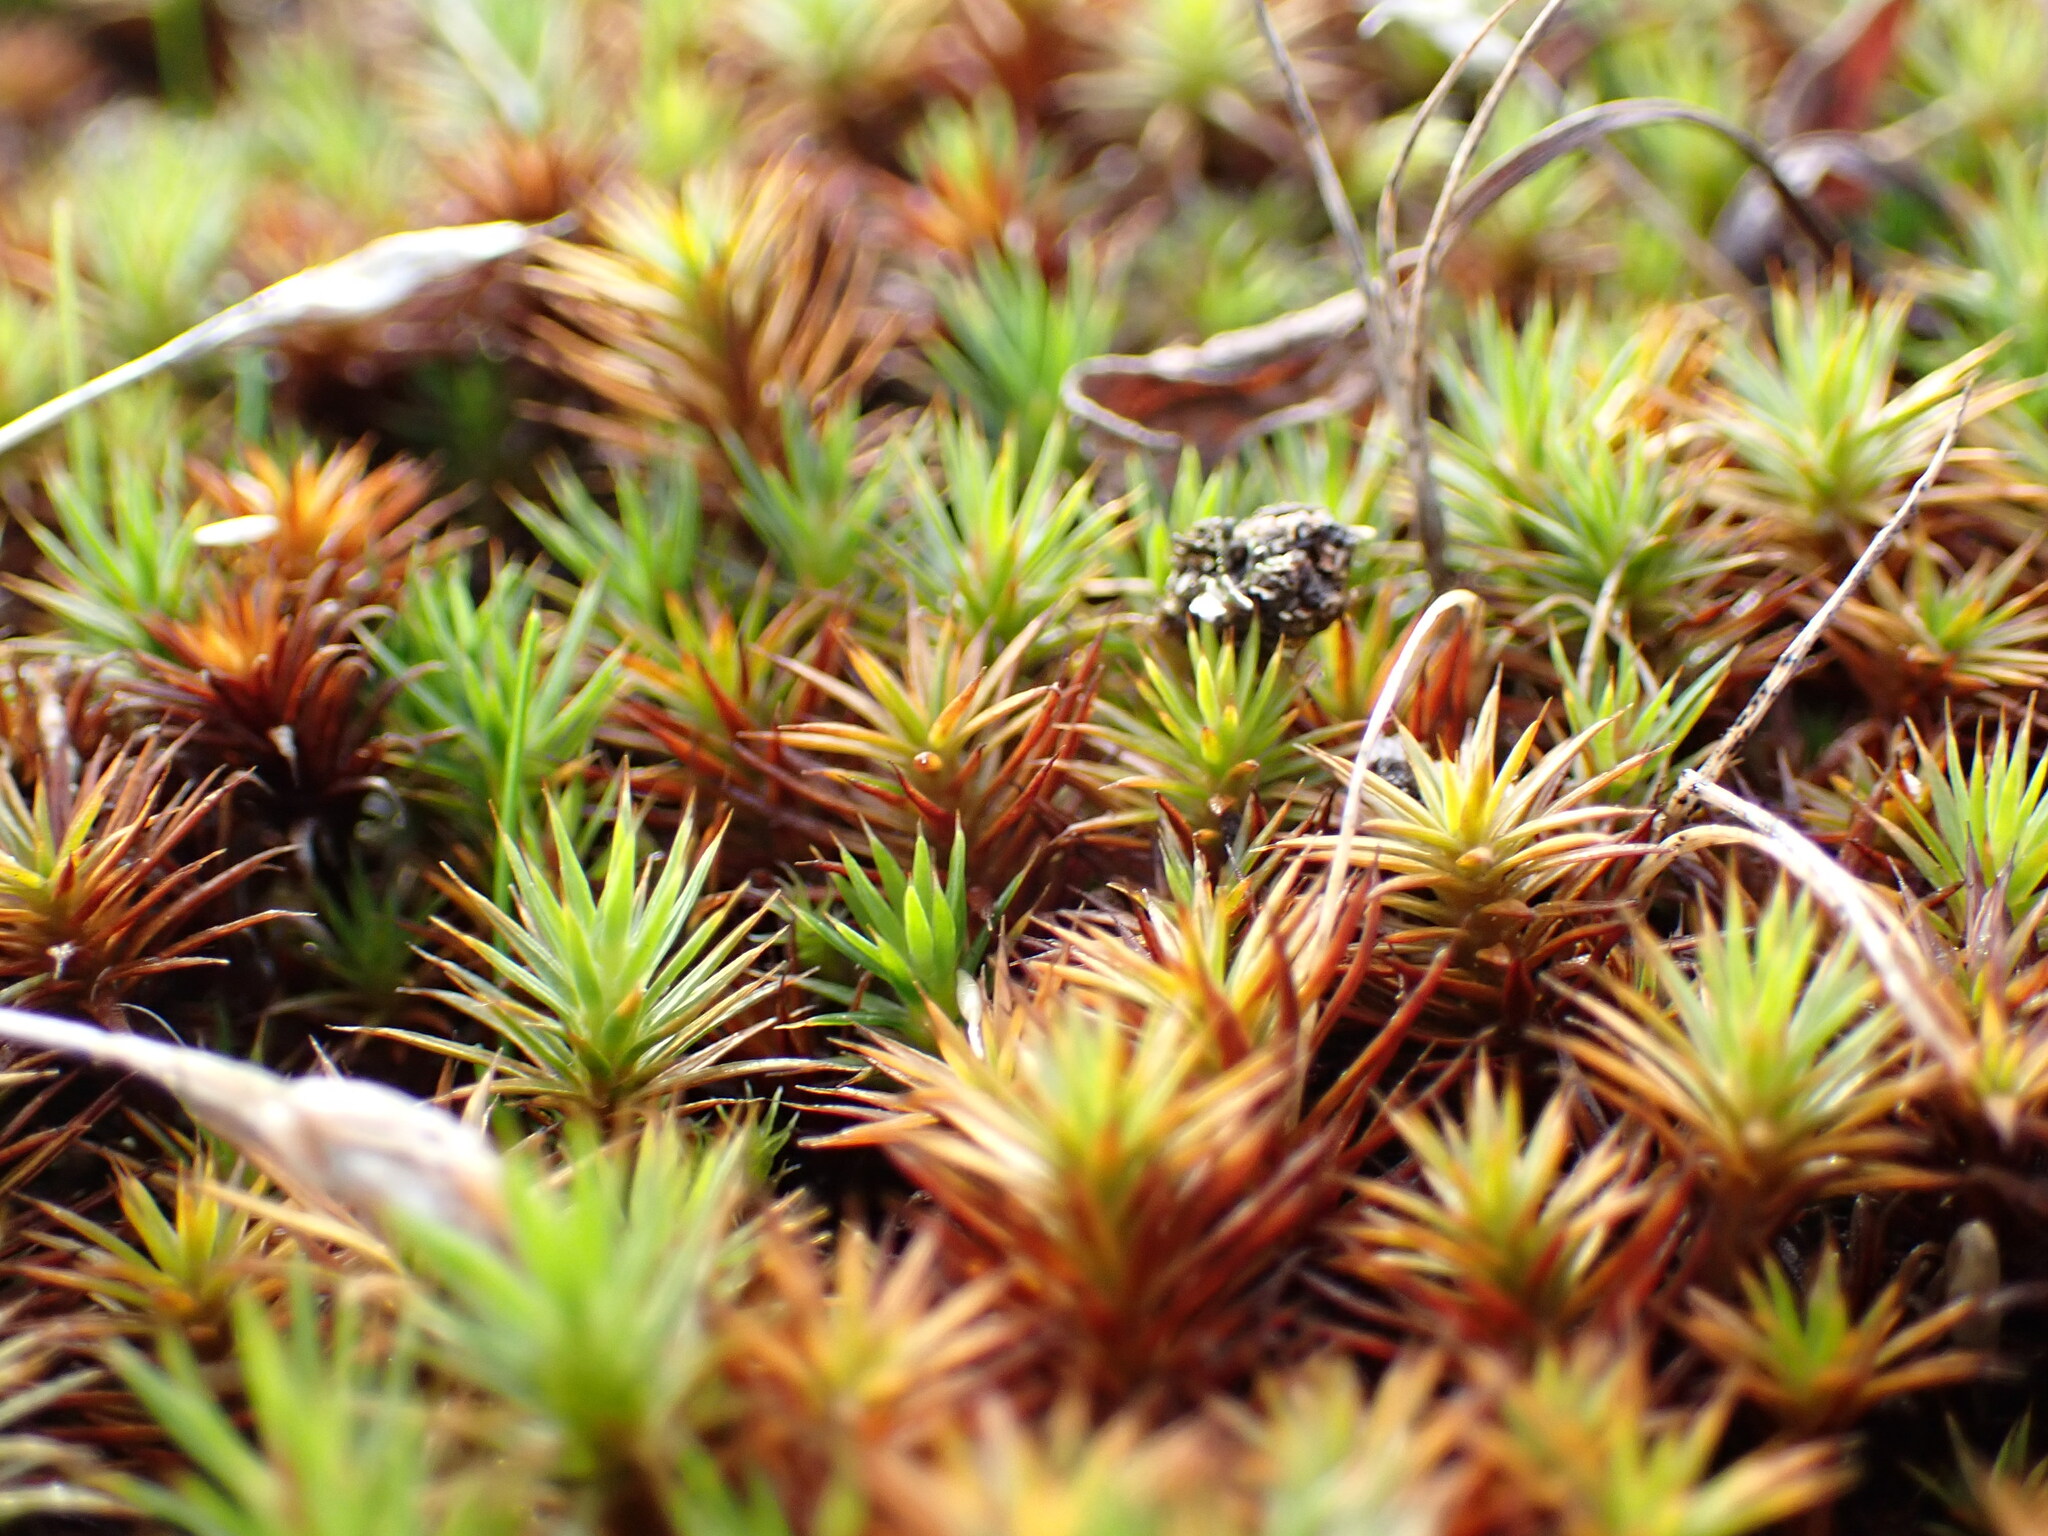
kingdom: Plantae
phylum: Bryophyta
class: Polytrichopsida
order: Polytrichales
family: Polytrichaceae
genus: Polytrichum
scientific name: Polytrichum juniperinum
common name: Juniper haircap moss
